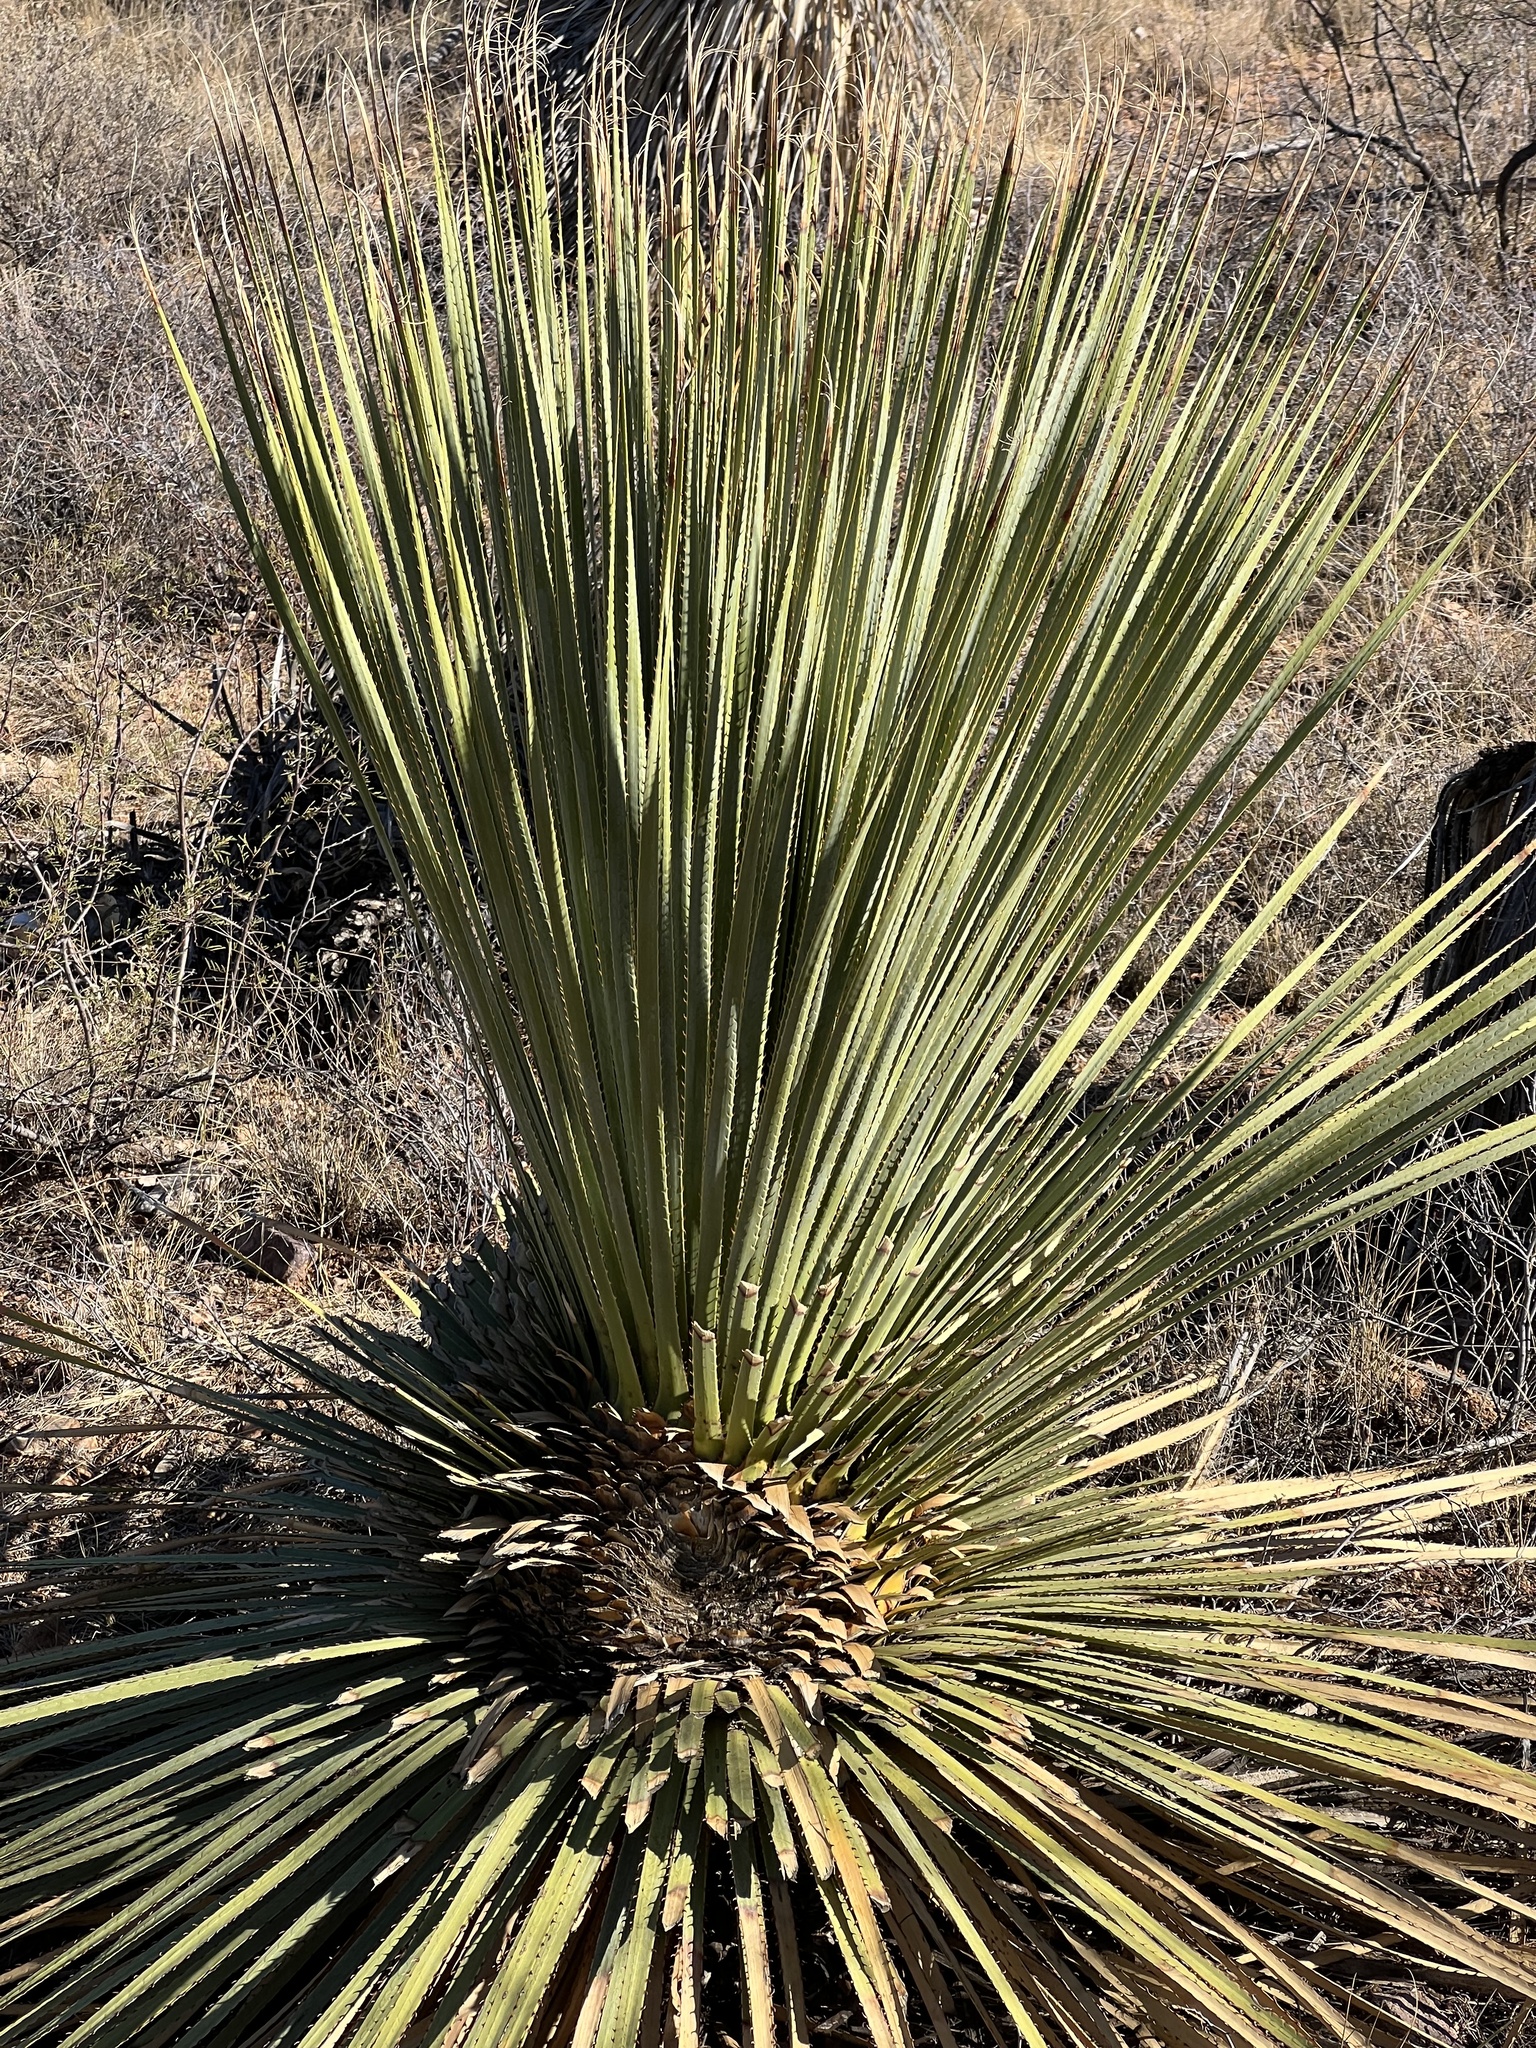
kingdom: Plantae
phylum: Tracheophyta
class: Liliopsida
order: Asparagales
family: Asparagaceae
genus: Dasylirion
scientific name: Dasylirion wheeleri
